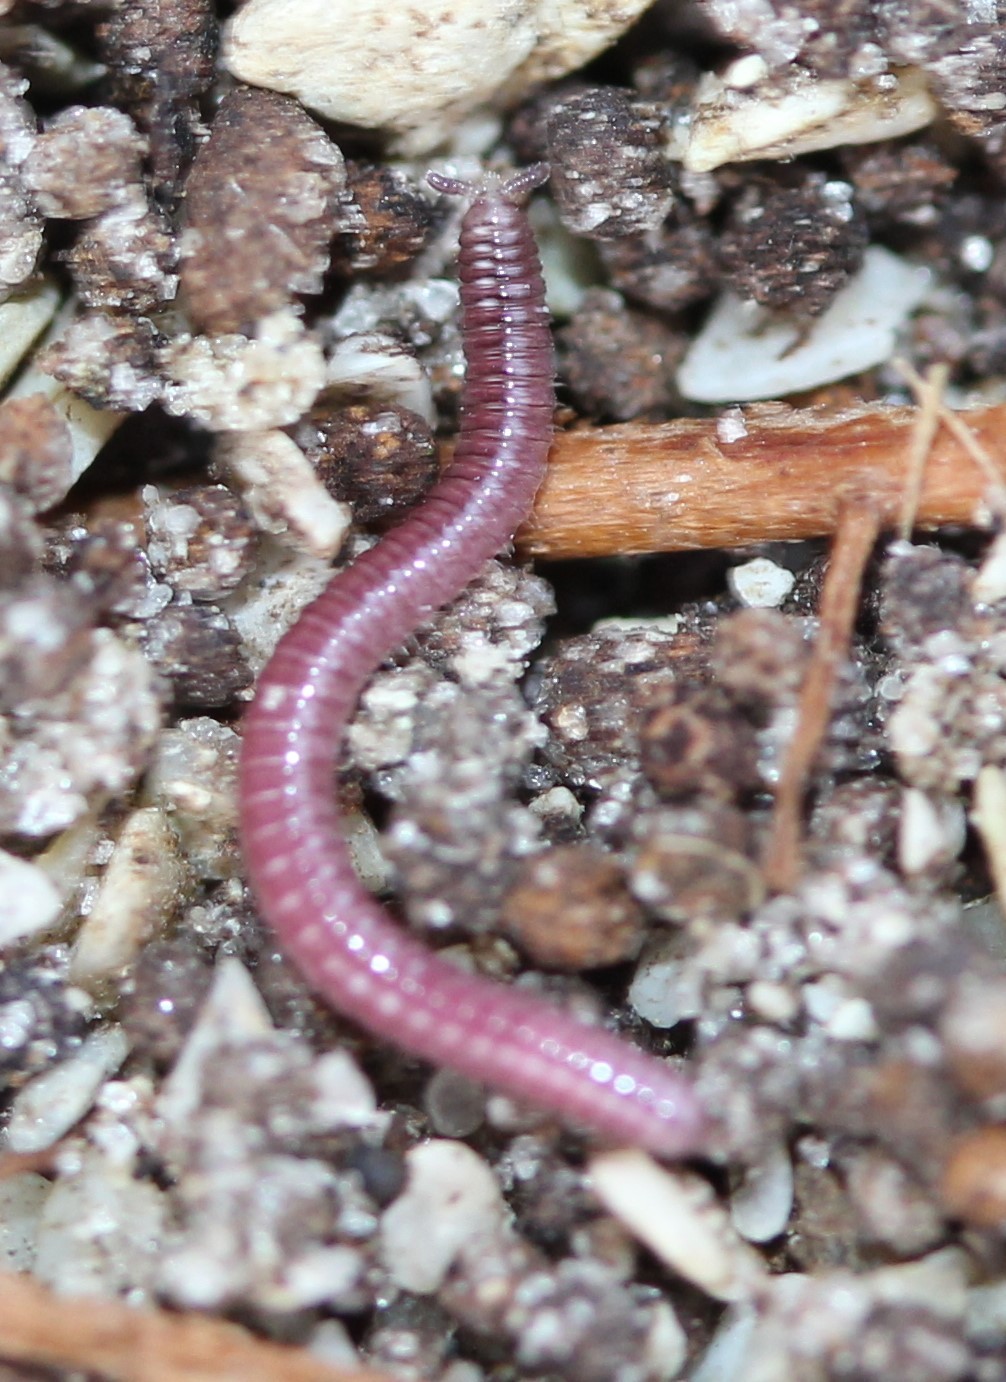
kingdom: Animalia
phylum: Arthropoda
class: Diplopoda
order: Polyzoniida
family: Siphonotidae
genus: Rhinotus
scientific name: Rhinotus purpureus
